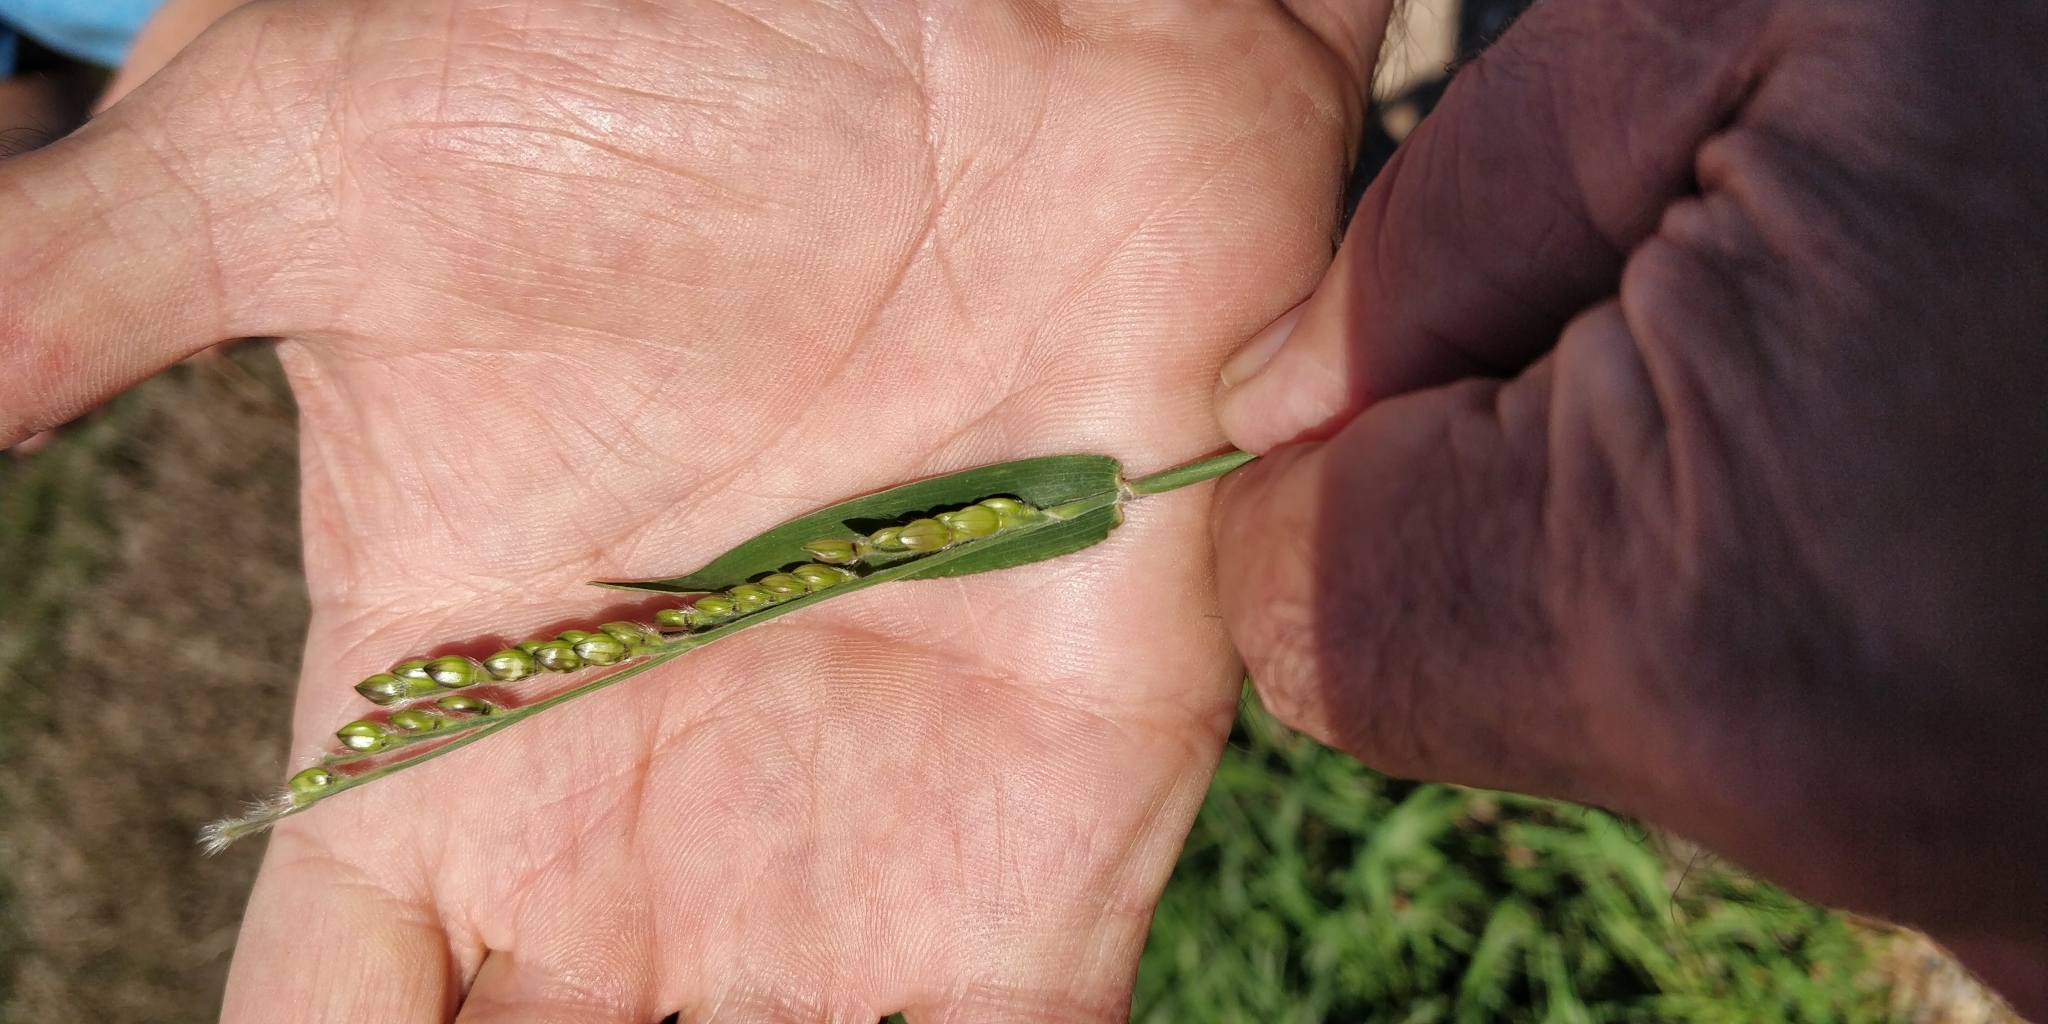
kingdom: Plantae
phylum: Tracheophyta
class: Liliopsida
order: Poales
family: Poaceae
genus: Eriochloa
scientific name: Eriochloa villosa
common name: Hairy cupgrass
